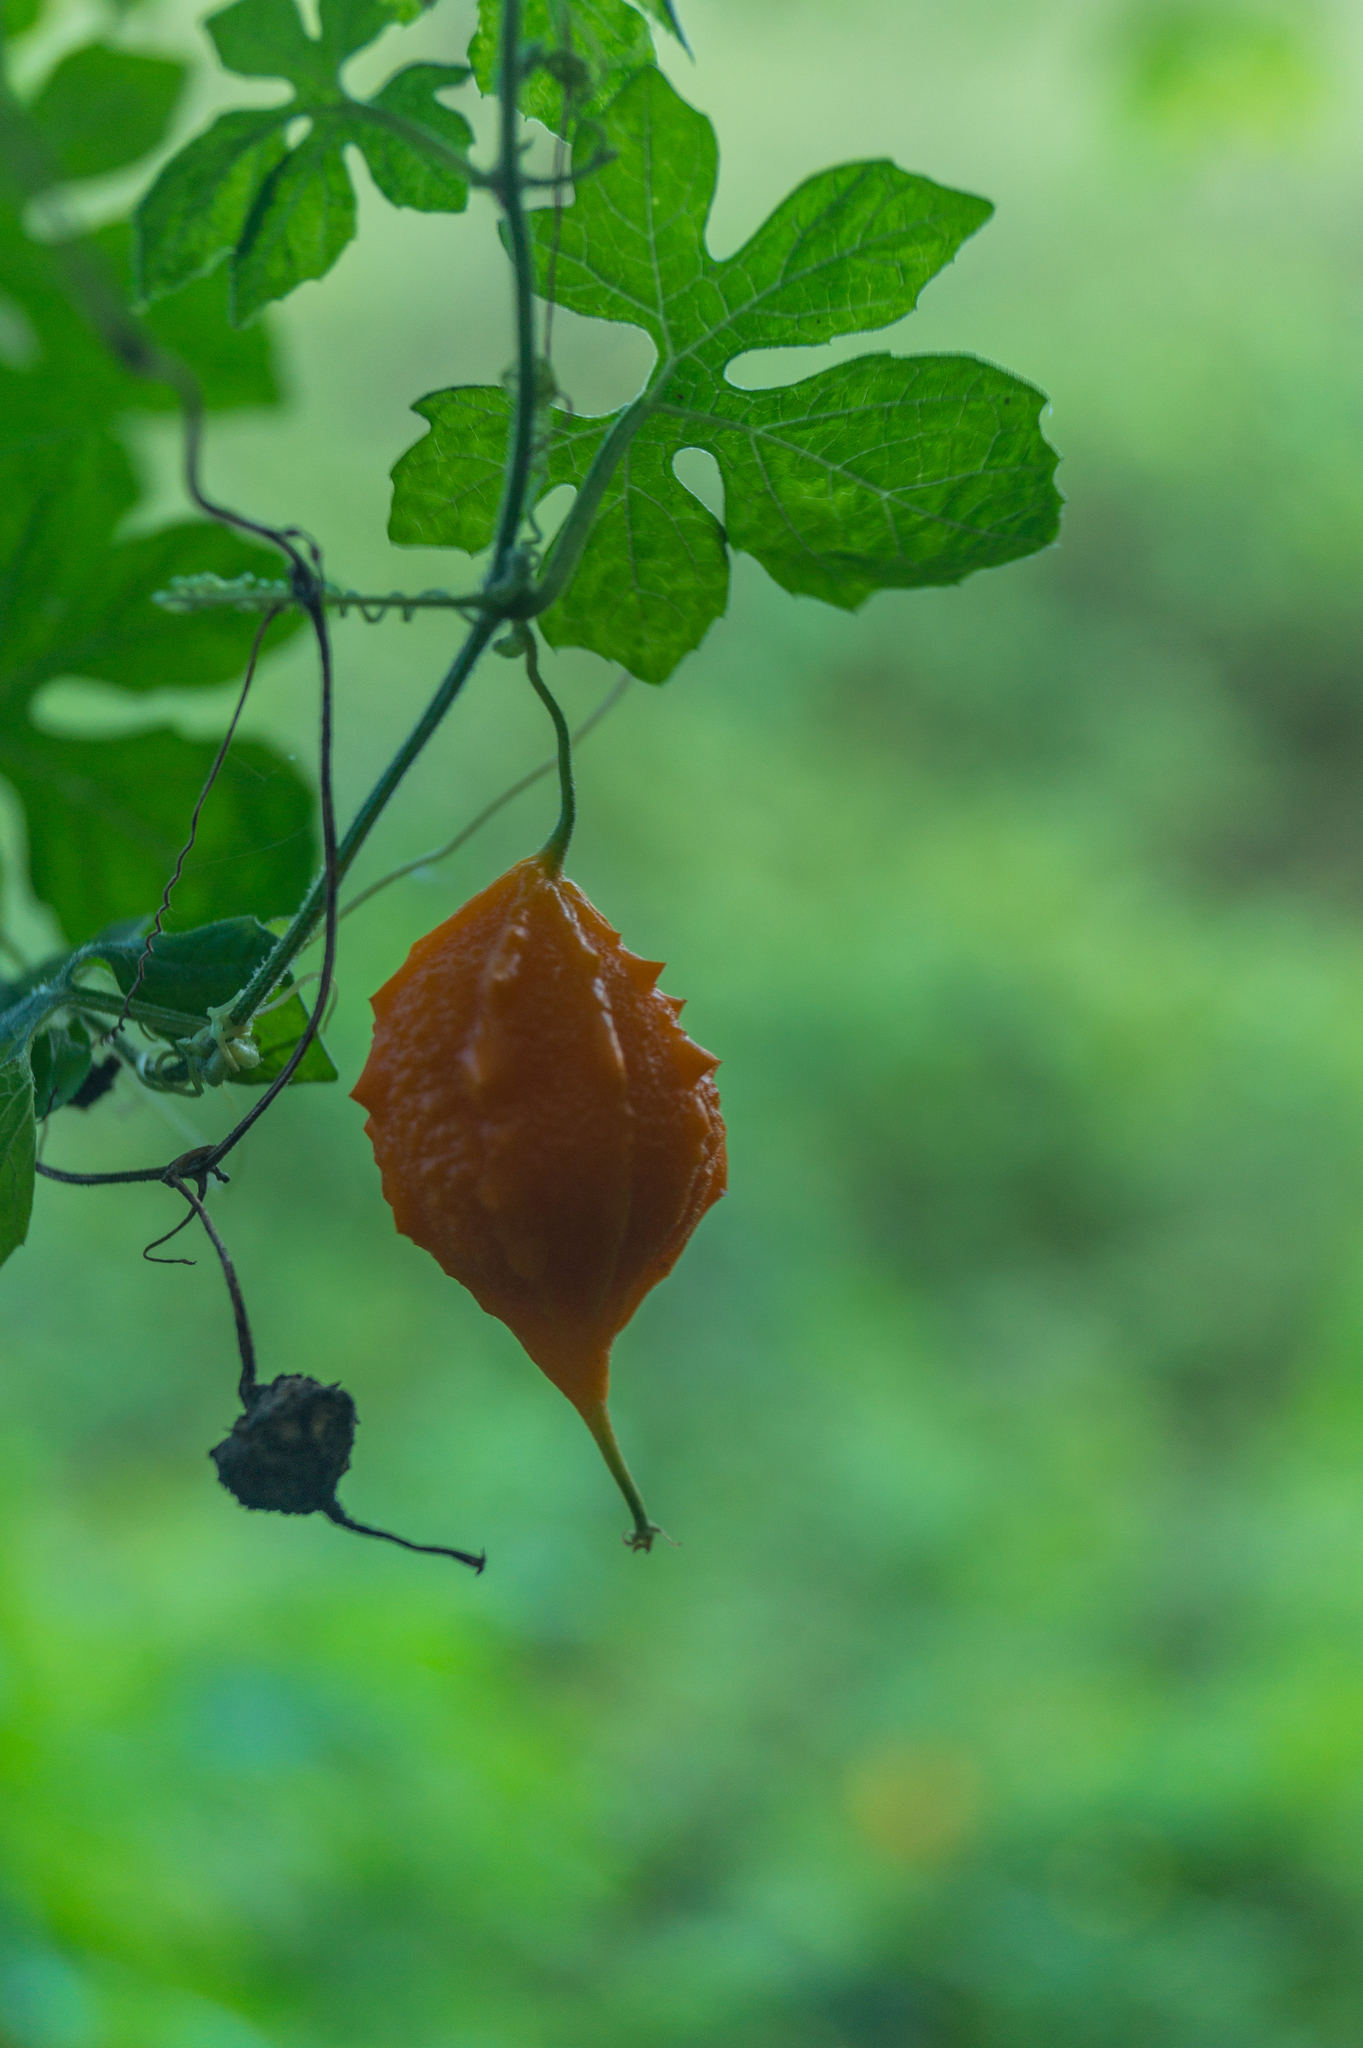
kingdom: Plantae
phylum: Tracheophyta
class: Magnoliopsida
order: Cucurbitales
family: Cucurbitaceae
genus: Momordica
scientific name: Momordica charantia
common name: Balsampear
